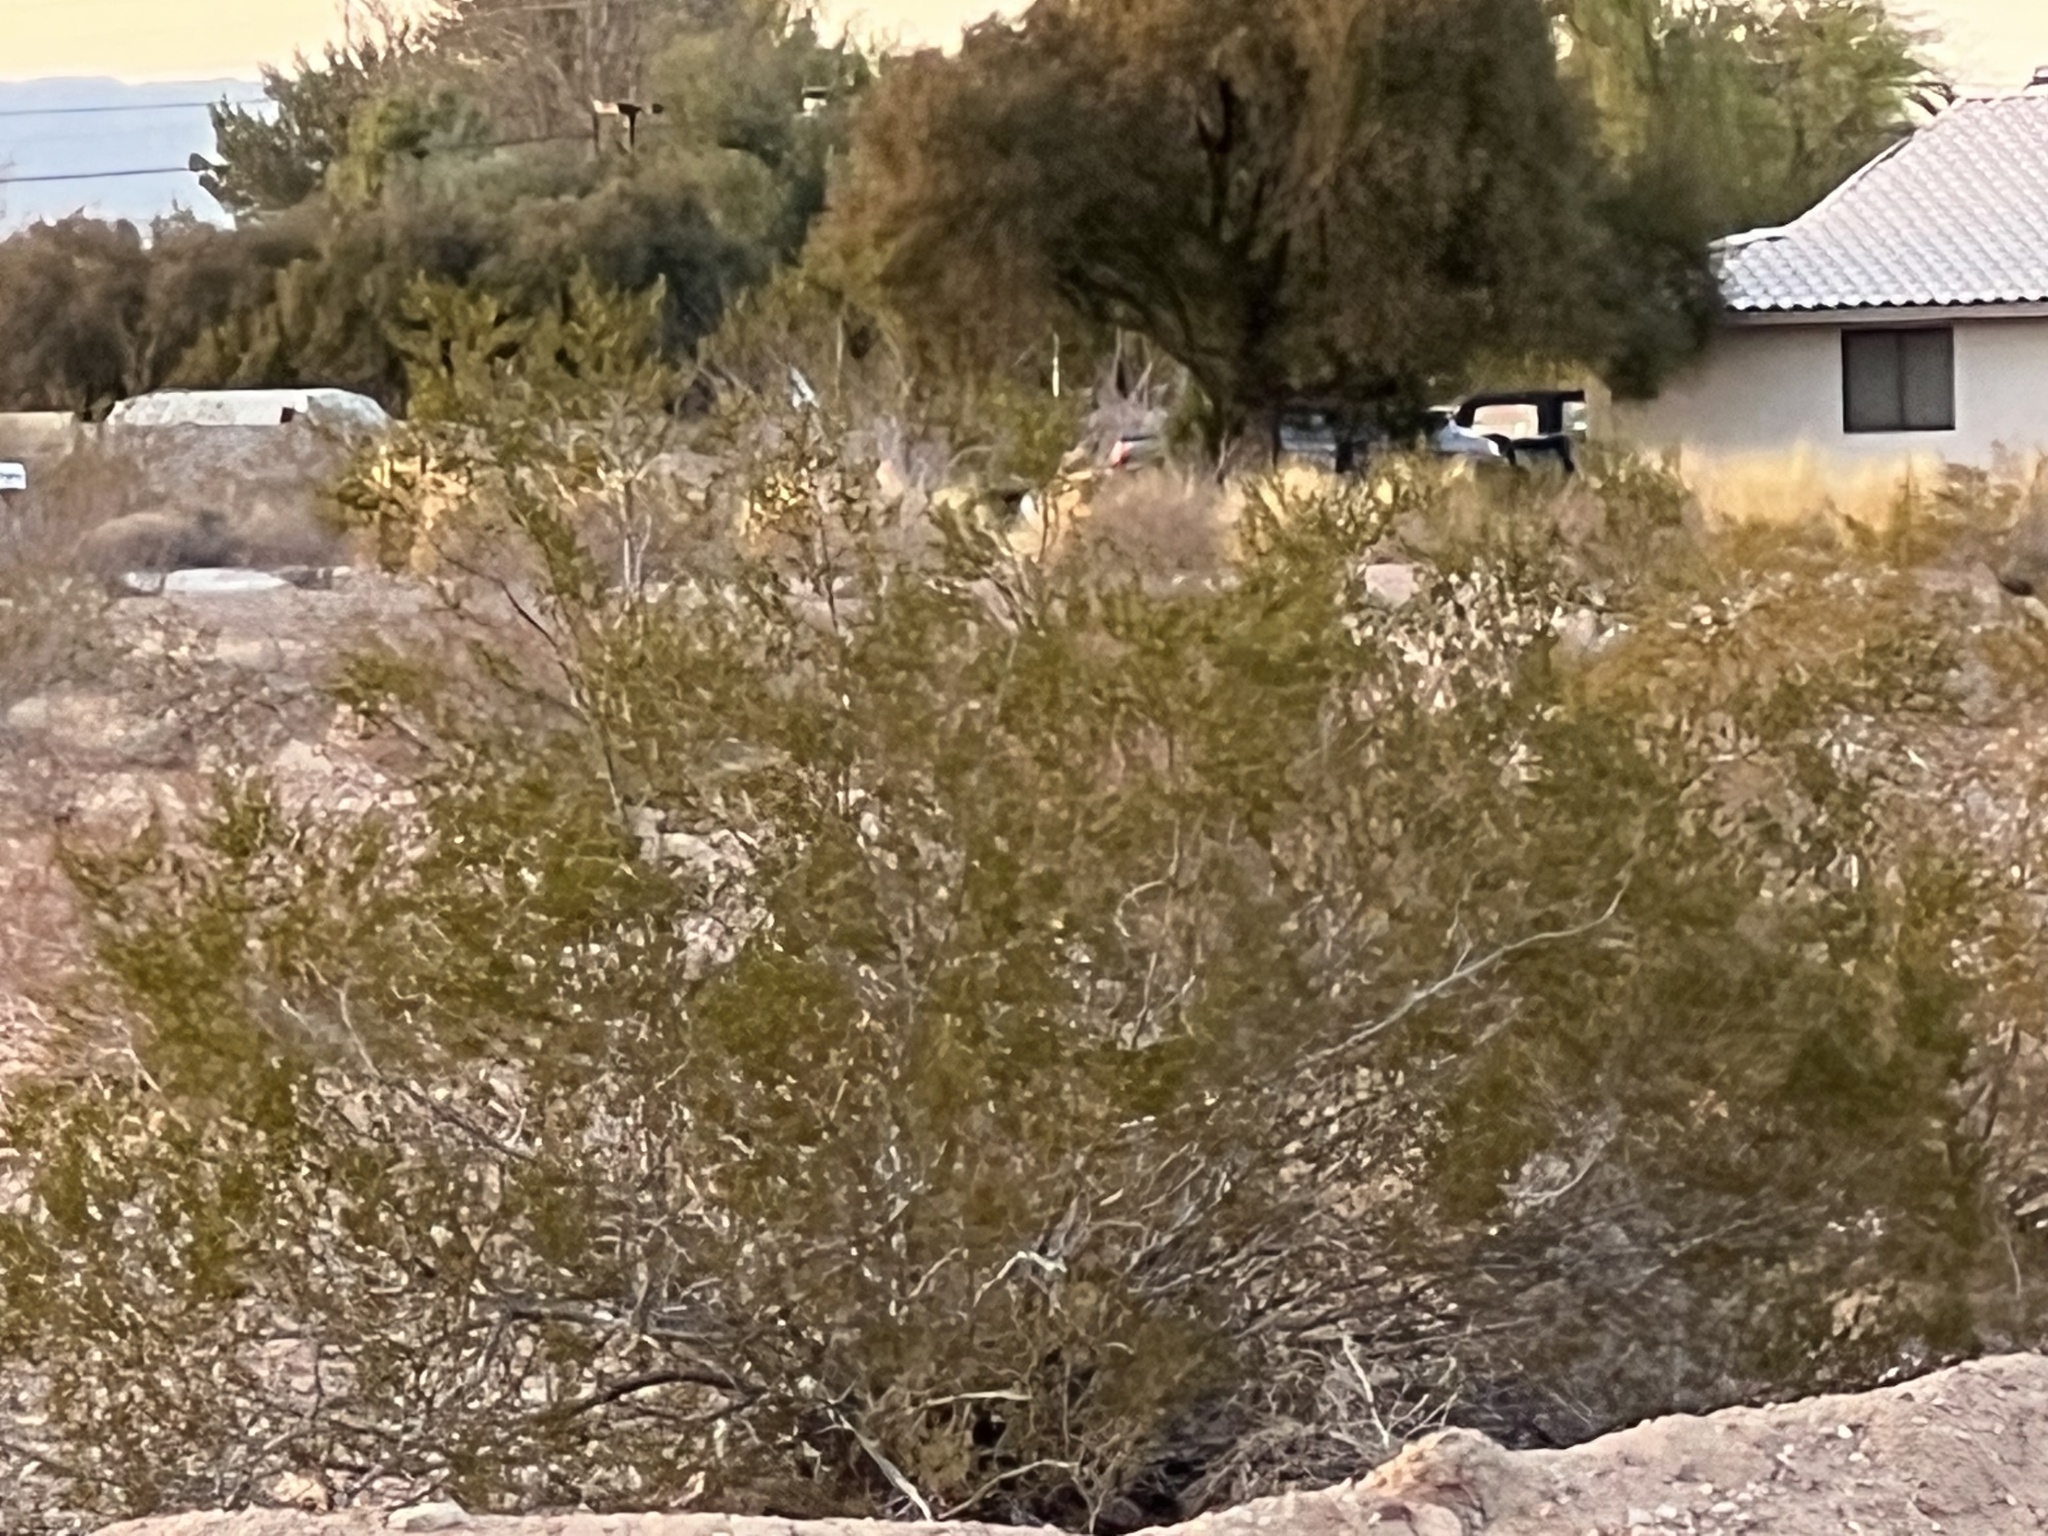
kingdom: Plantae
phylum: Tracheophyta
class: Magnoliopsida
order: Zygophyllales
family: Zygophyllaceae
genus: Larrea
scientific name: Larrea tridentata
